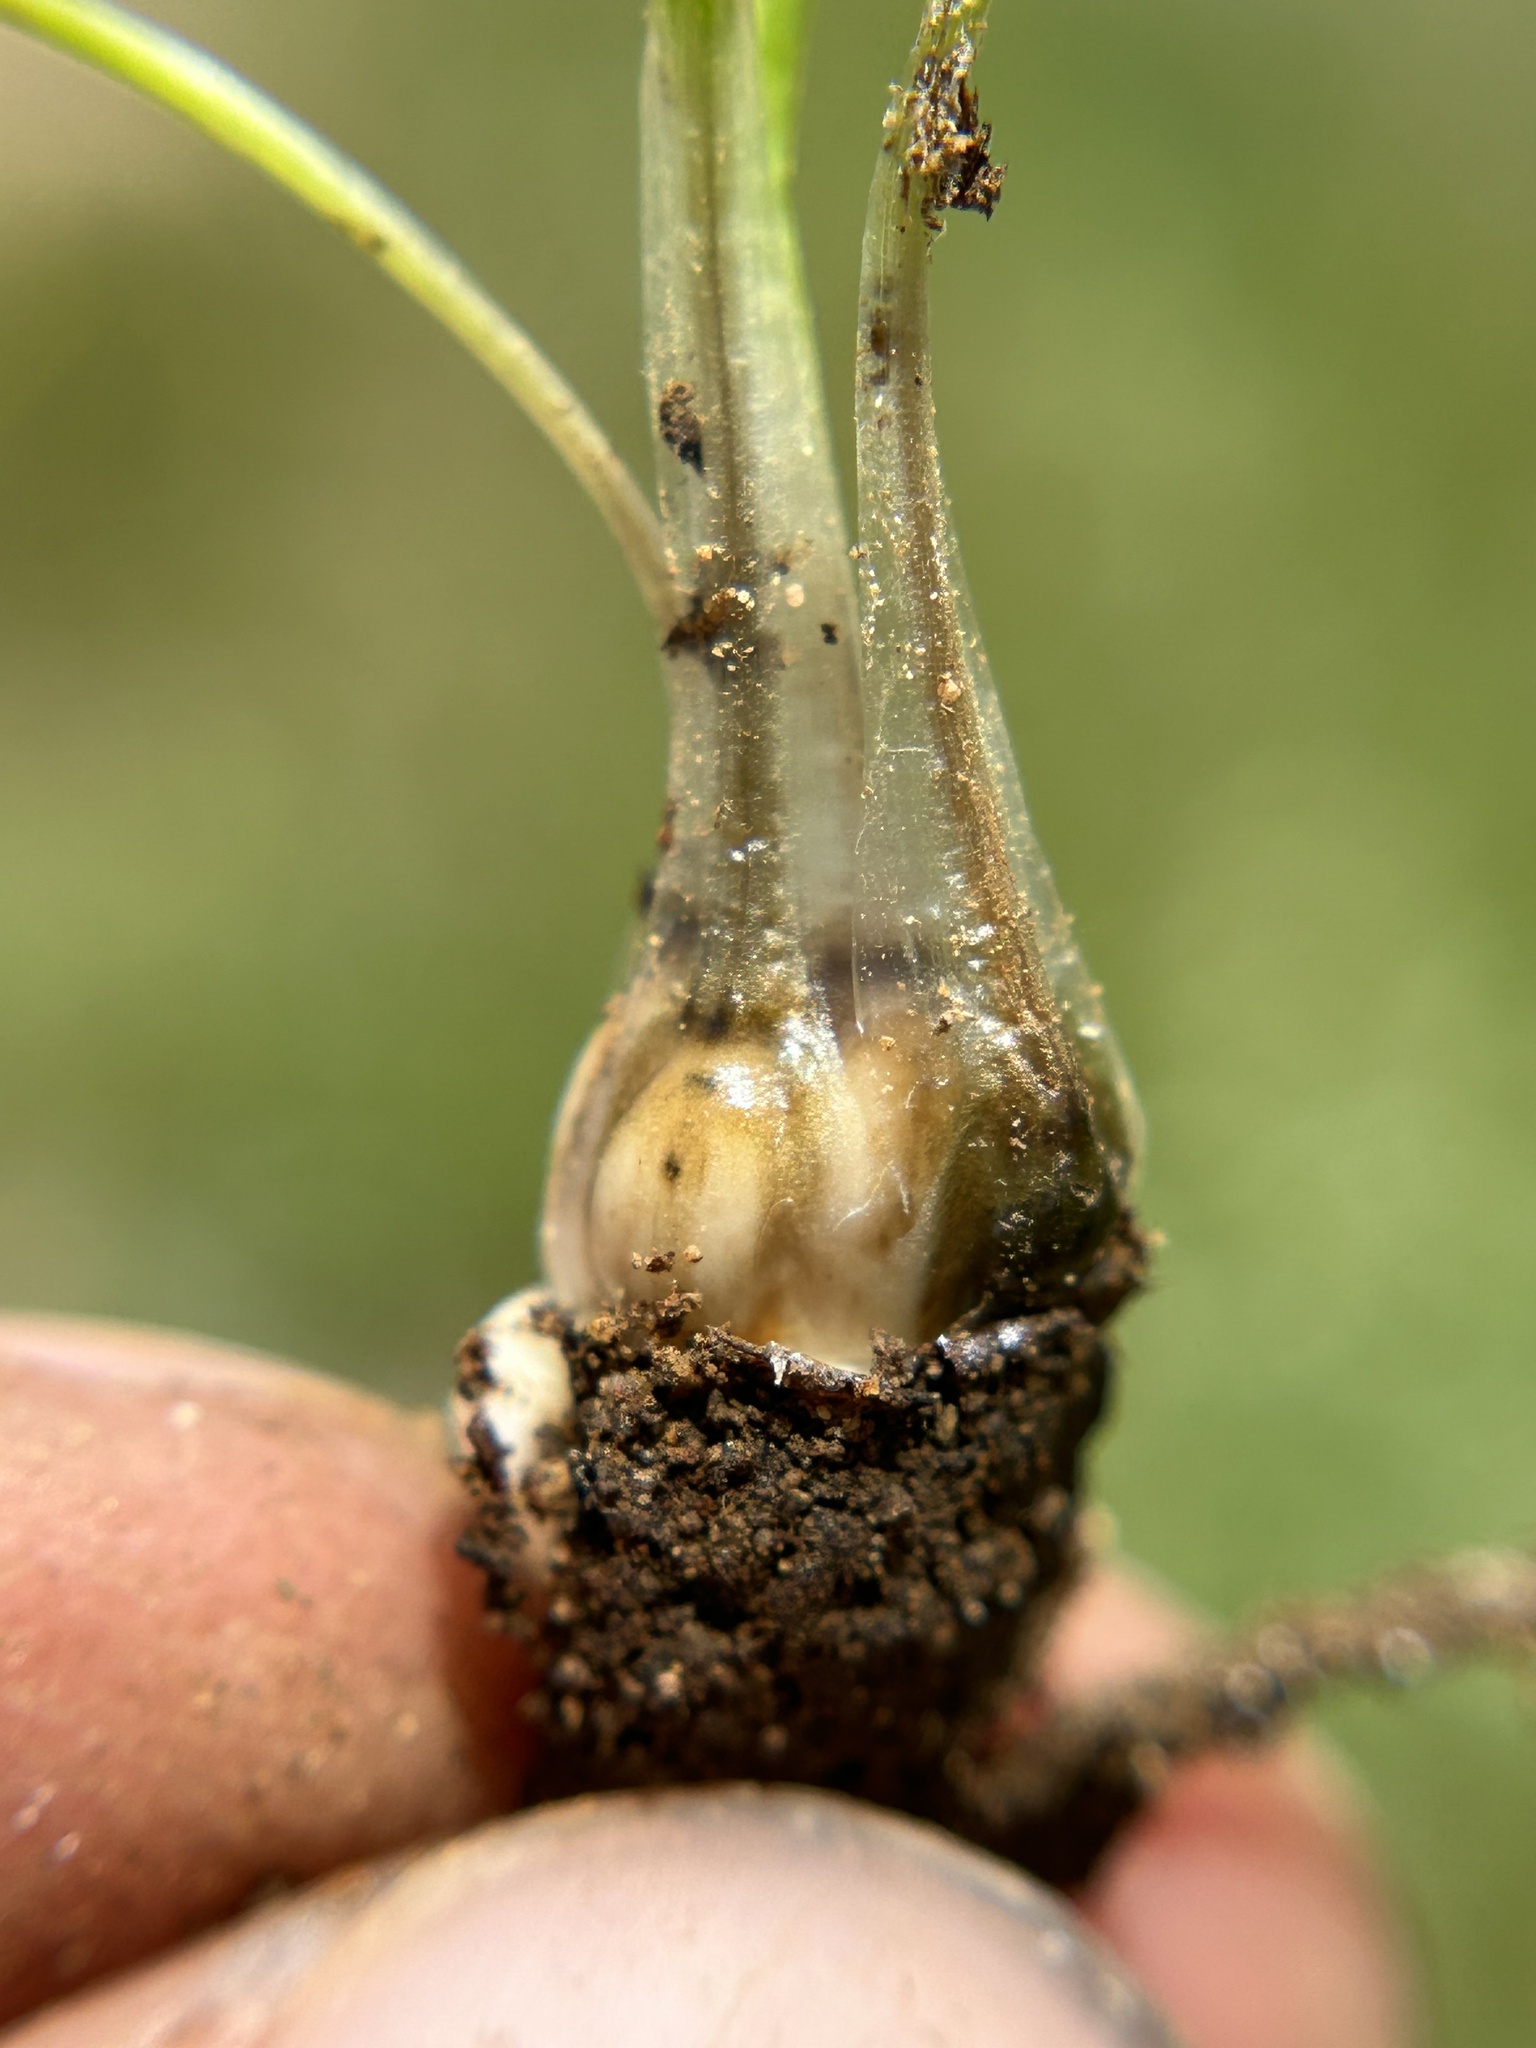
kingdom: Plantae
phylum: Tracheophyta
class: Lycopodiopsida
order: Isoetales
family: Isoetaceae
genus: Isoetes
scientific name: Isoetes orcuttii
